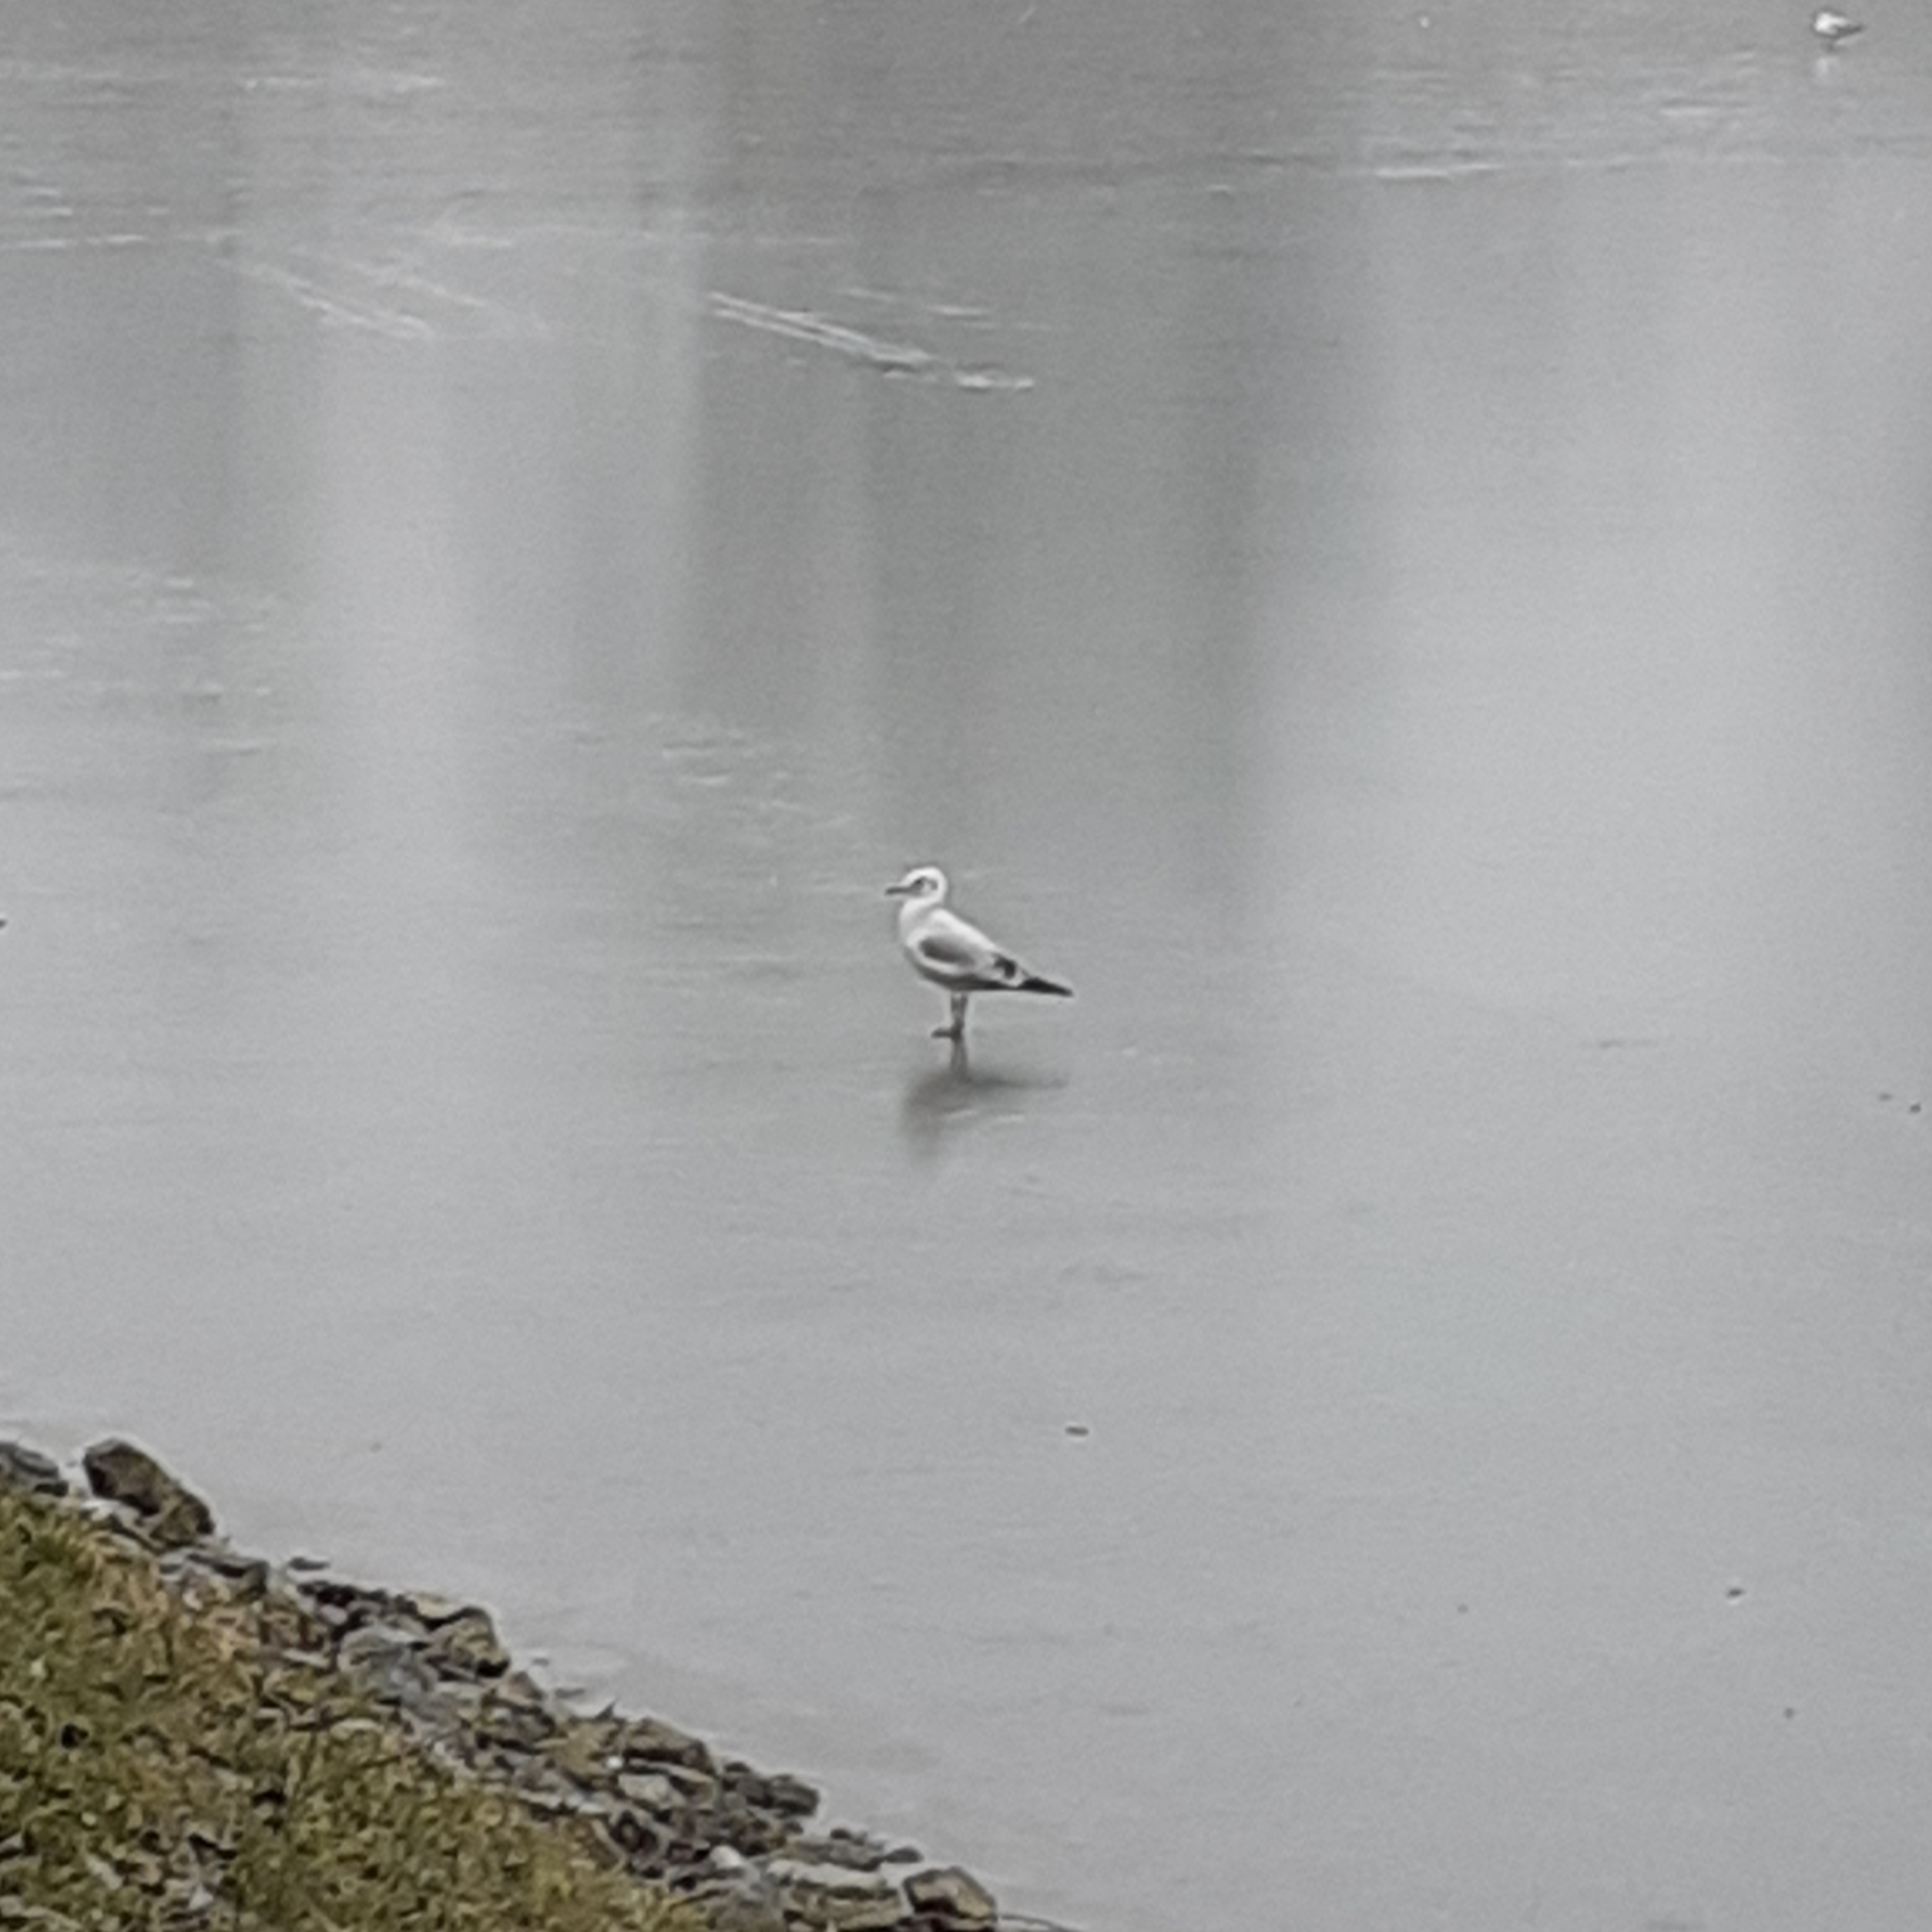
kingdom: Animalia
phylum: Chordata
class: Aves
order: Charadriiformes
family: Laridae
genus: Chroicocephalus
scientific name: Chroicocephalus ridibundus
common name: Black-headed gull
